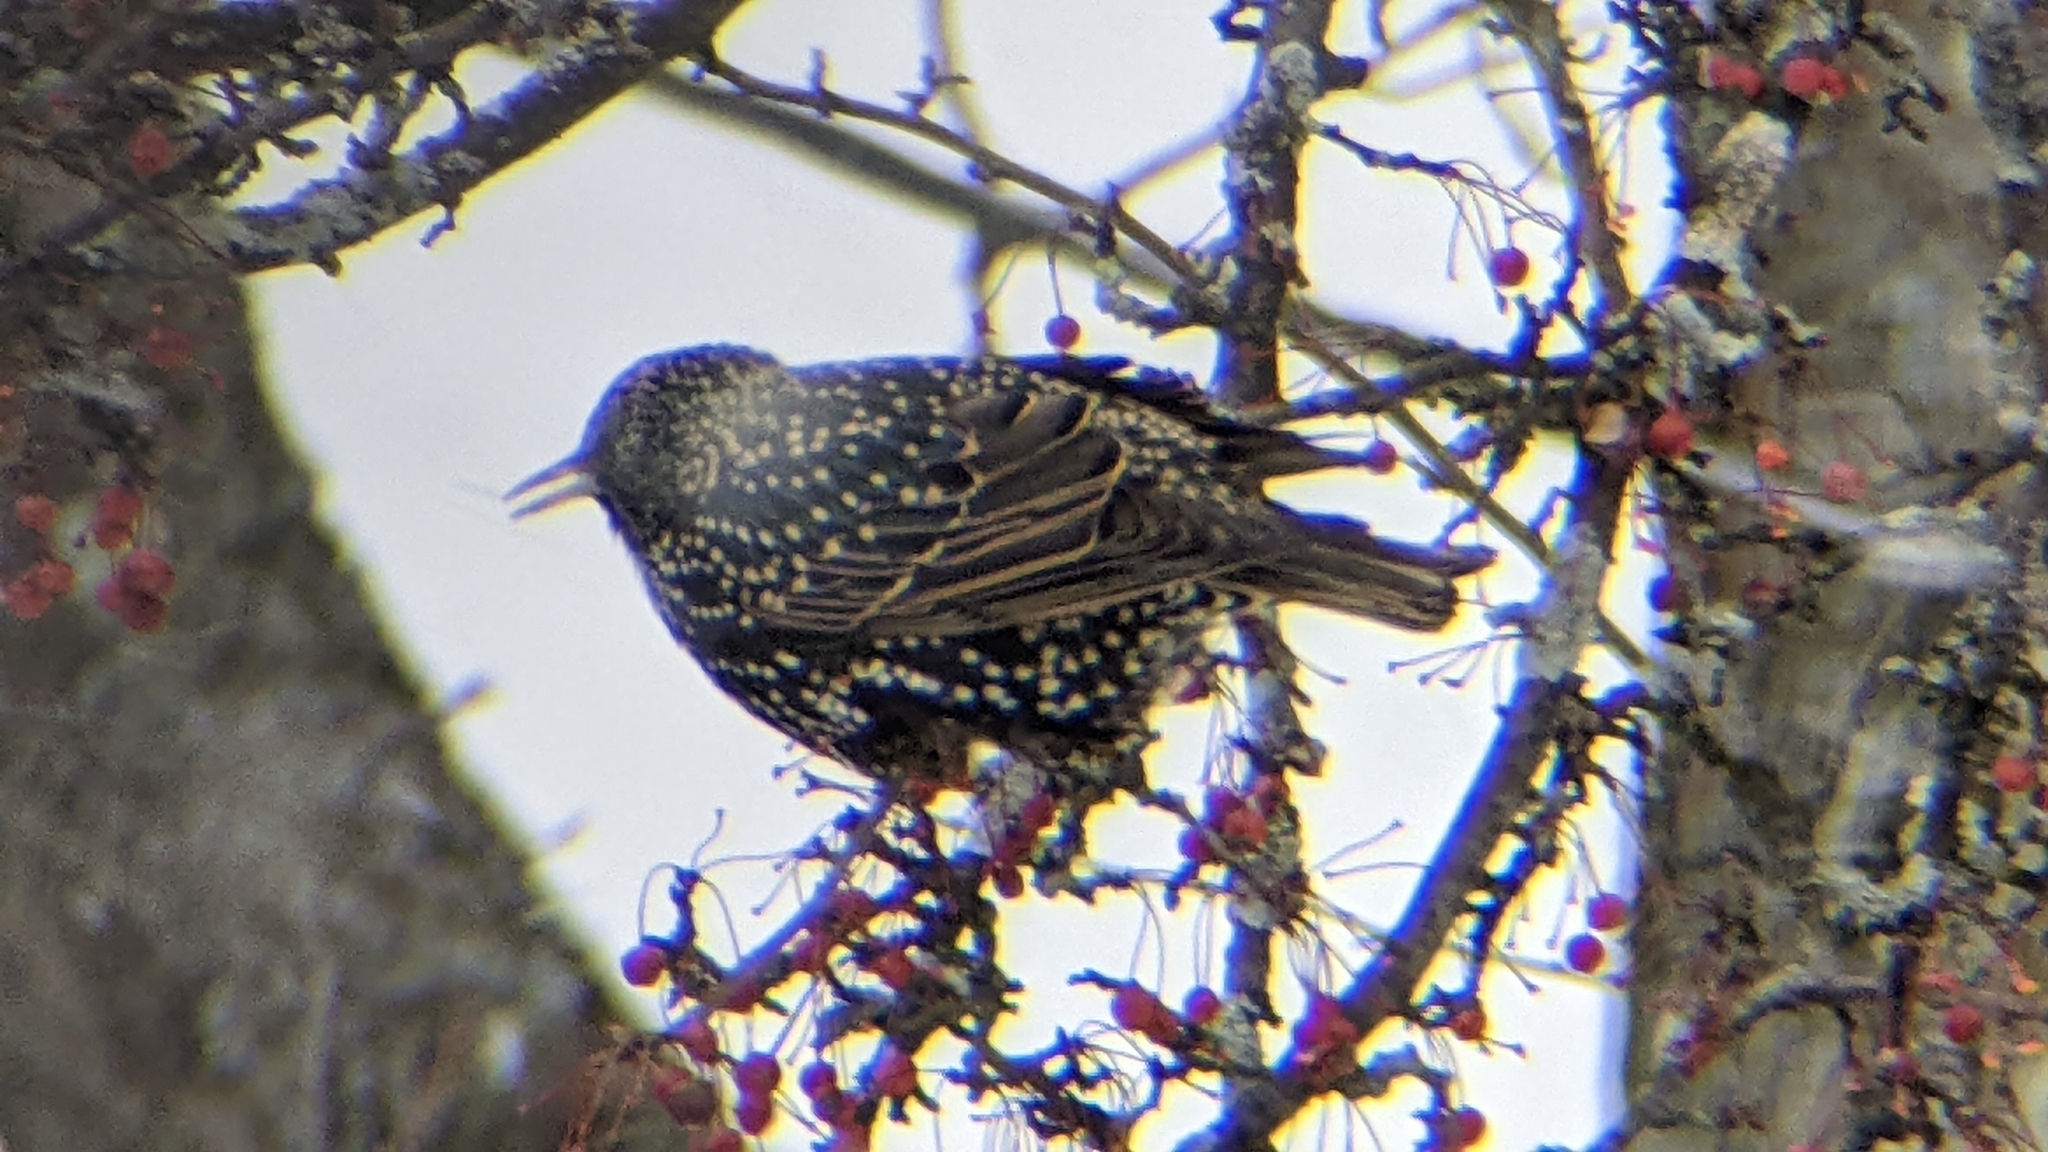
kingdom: Animalia
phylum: Chordata
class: Aves
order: Passeriformes
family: Sturnidae
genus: Sturnus
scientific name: Sturnus vulgaris
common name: Common starling
